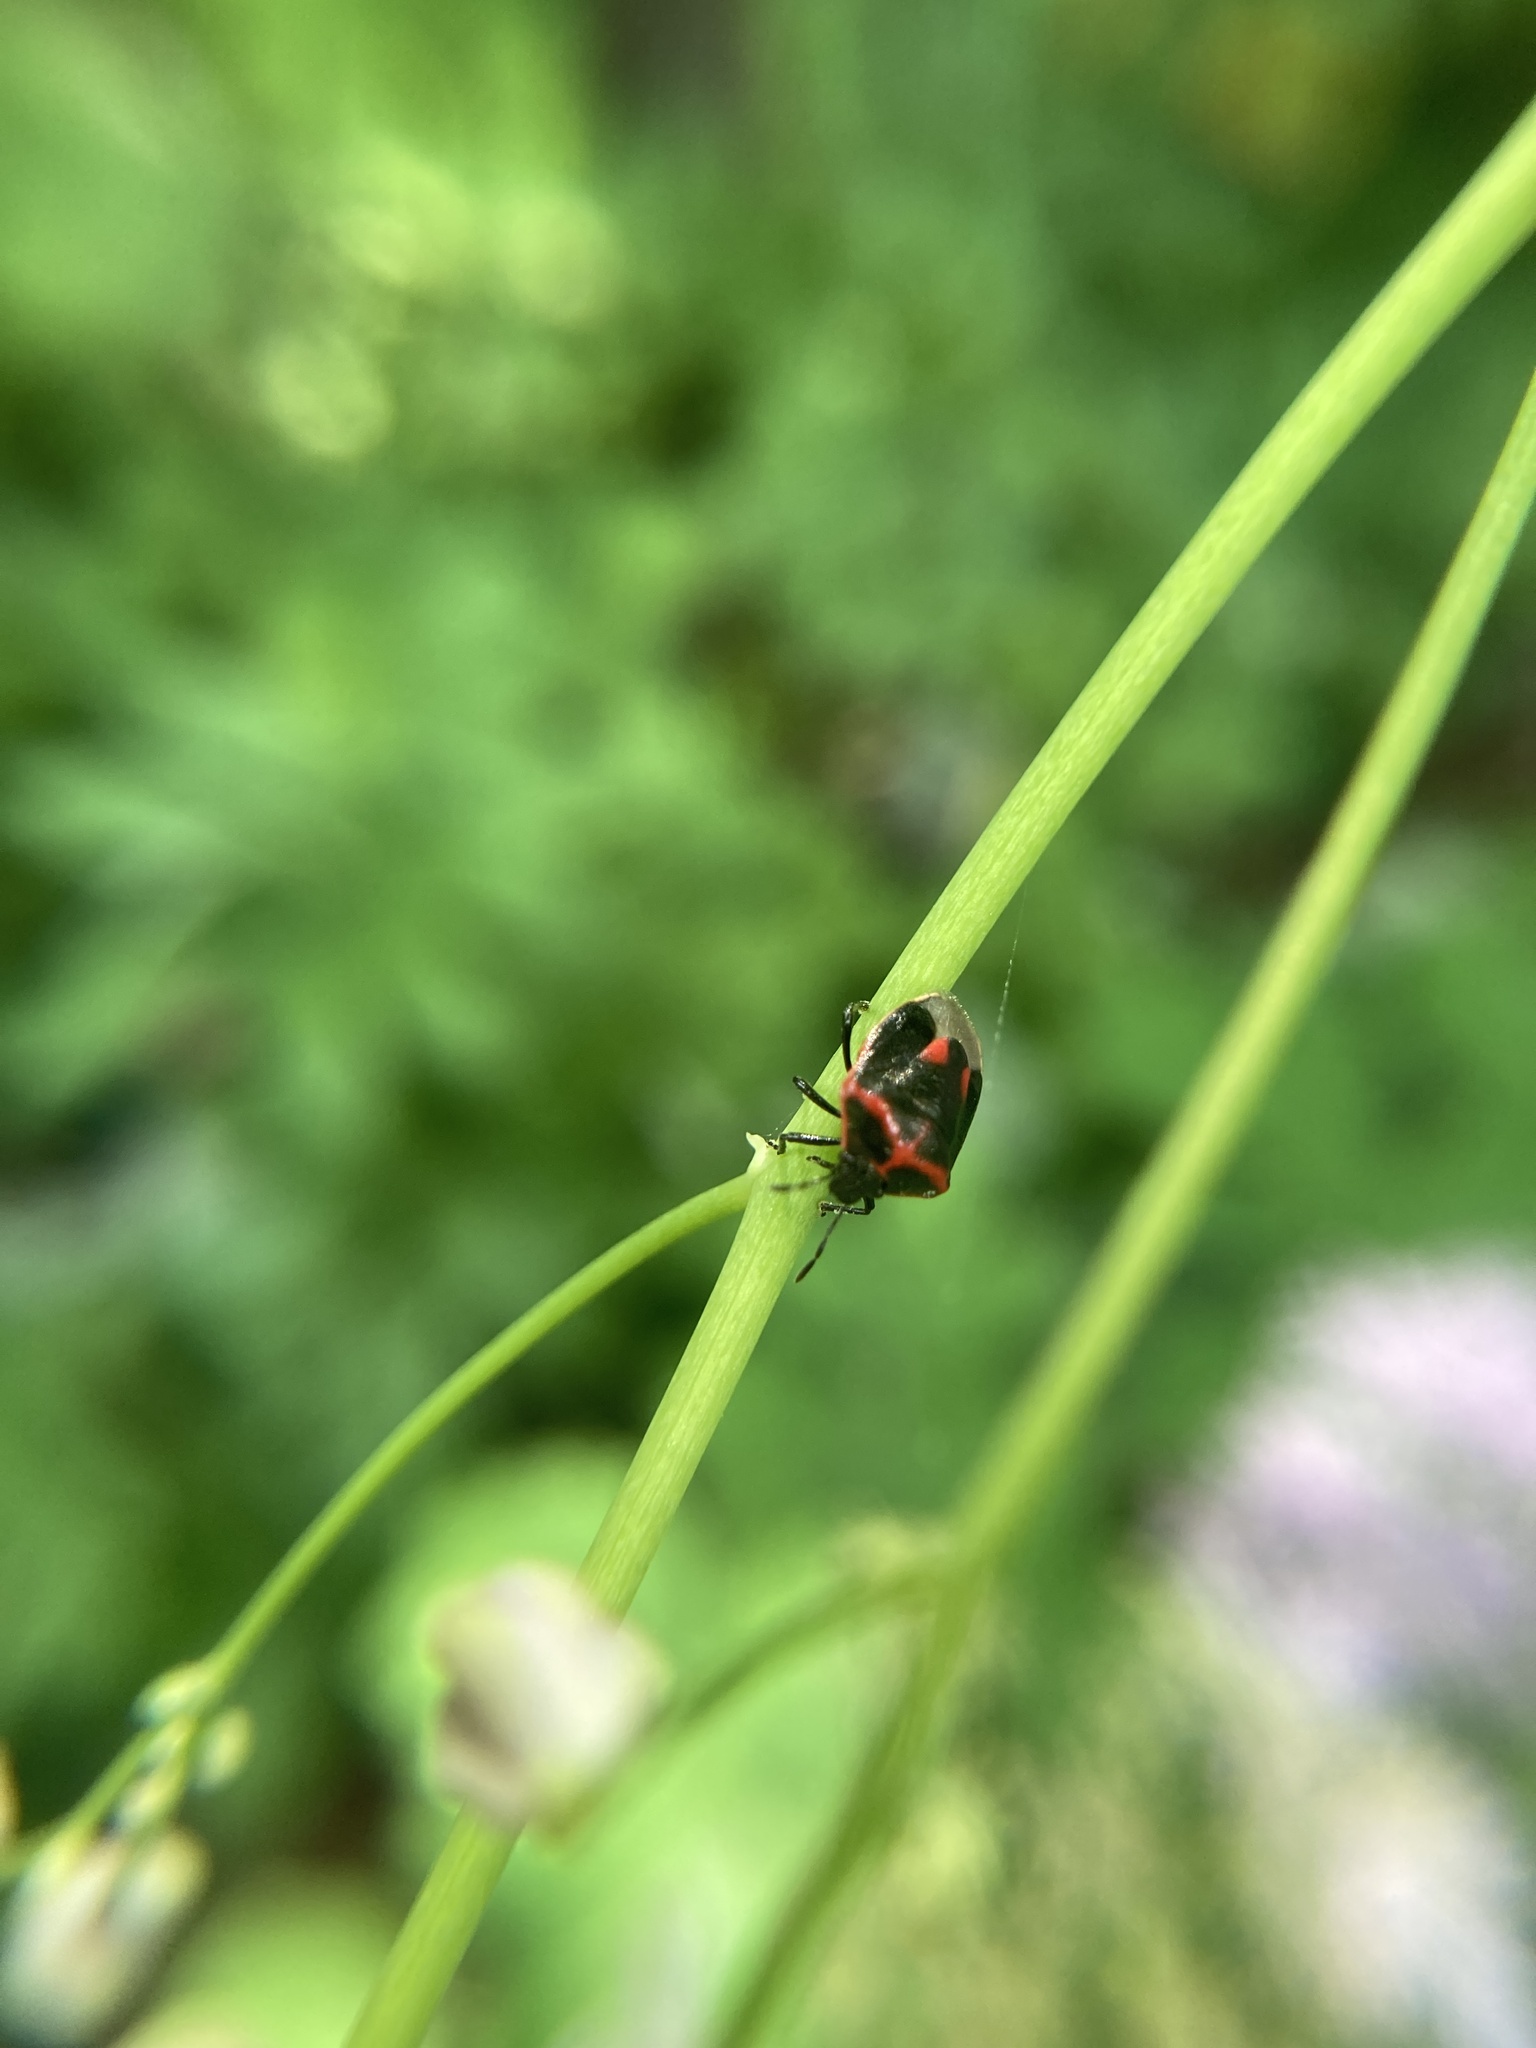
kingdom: Animalia
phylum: Arthropoda
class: Insecta
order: Hemiptera
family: Pentatomidae
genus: Cosmopepla
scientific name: Cosmopepla lintneriana
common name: Twice-stabbed stink bug
